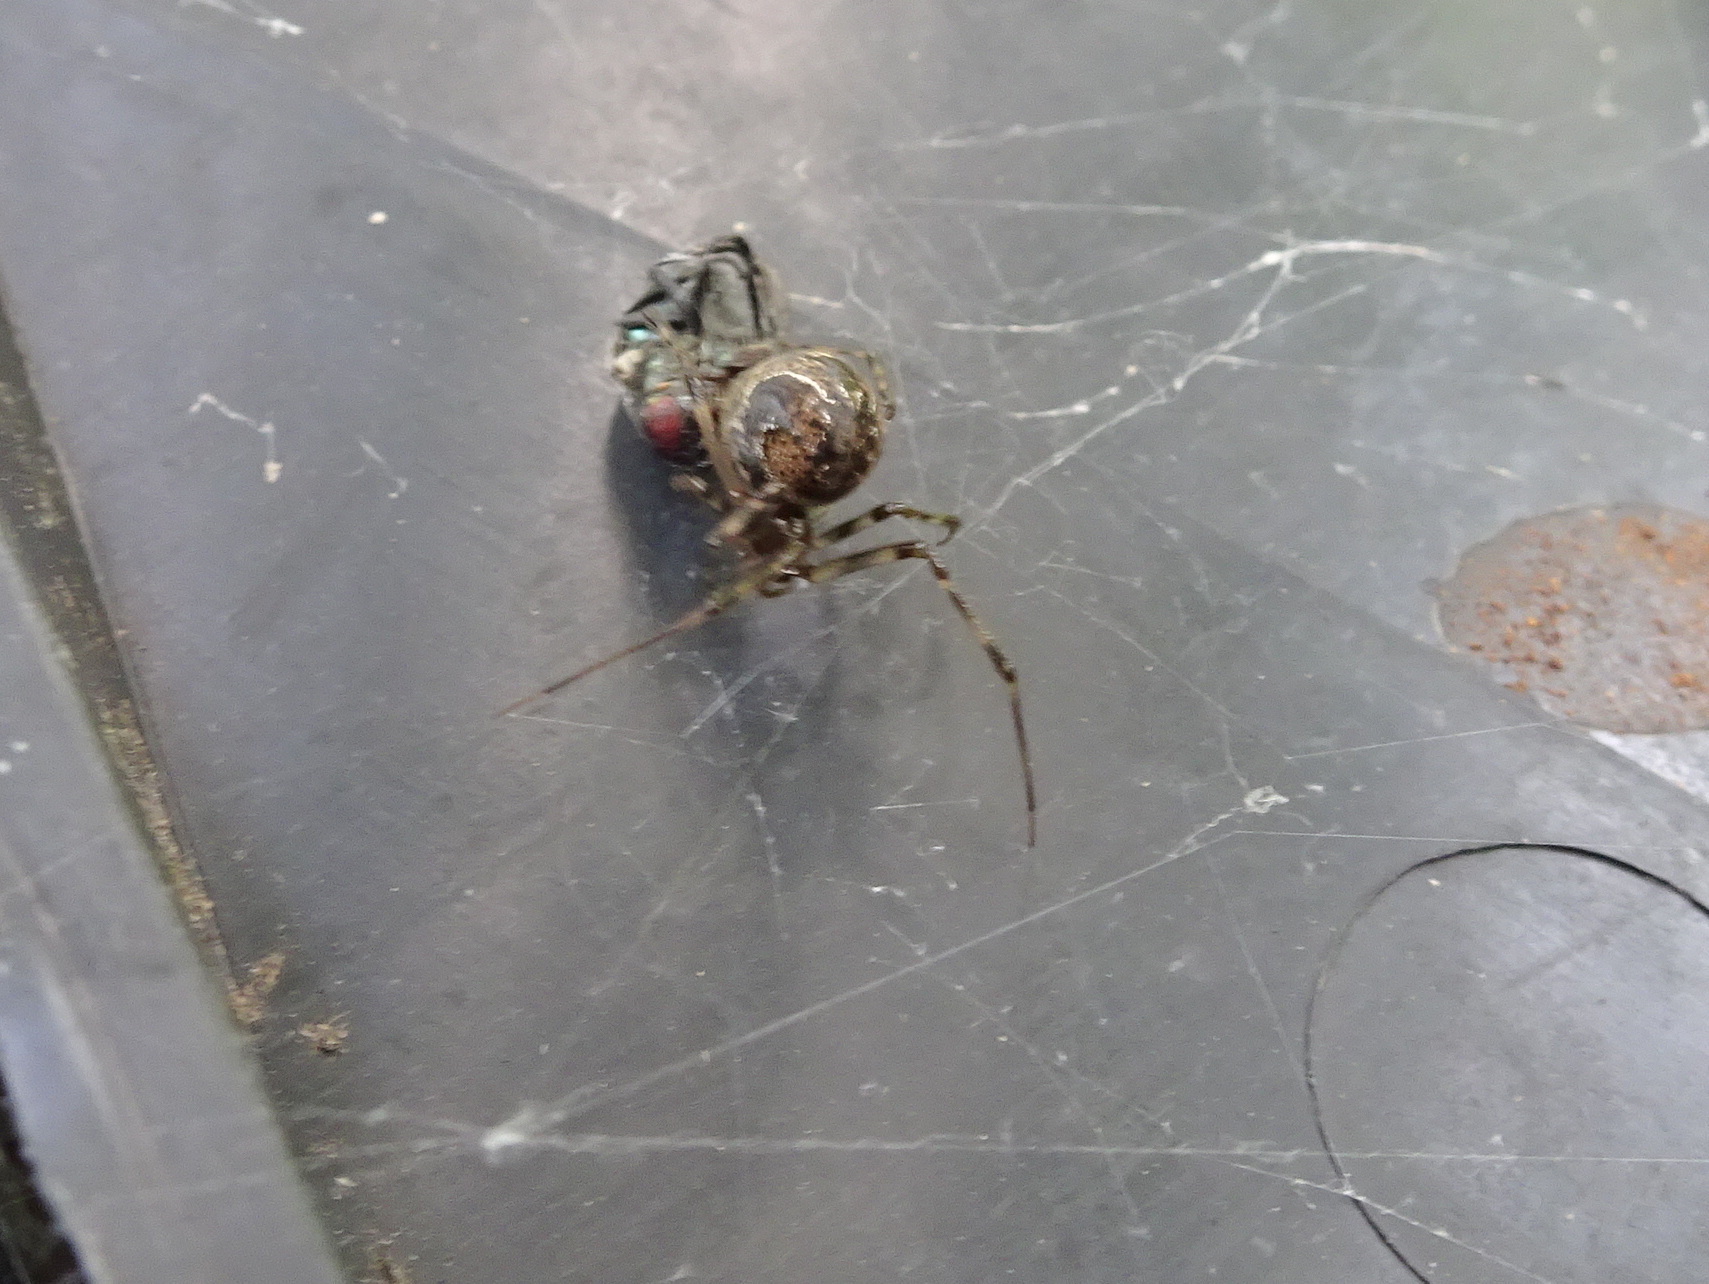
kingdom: Animalia
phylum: Arthropoda
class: Arachnida
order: Araneae
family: Theridiidae
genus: Parasteatoda
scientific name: Parasteatoda tepidariorum
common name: Common house spider
